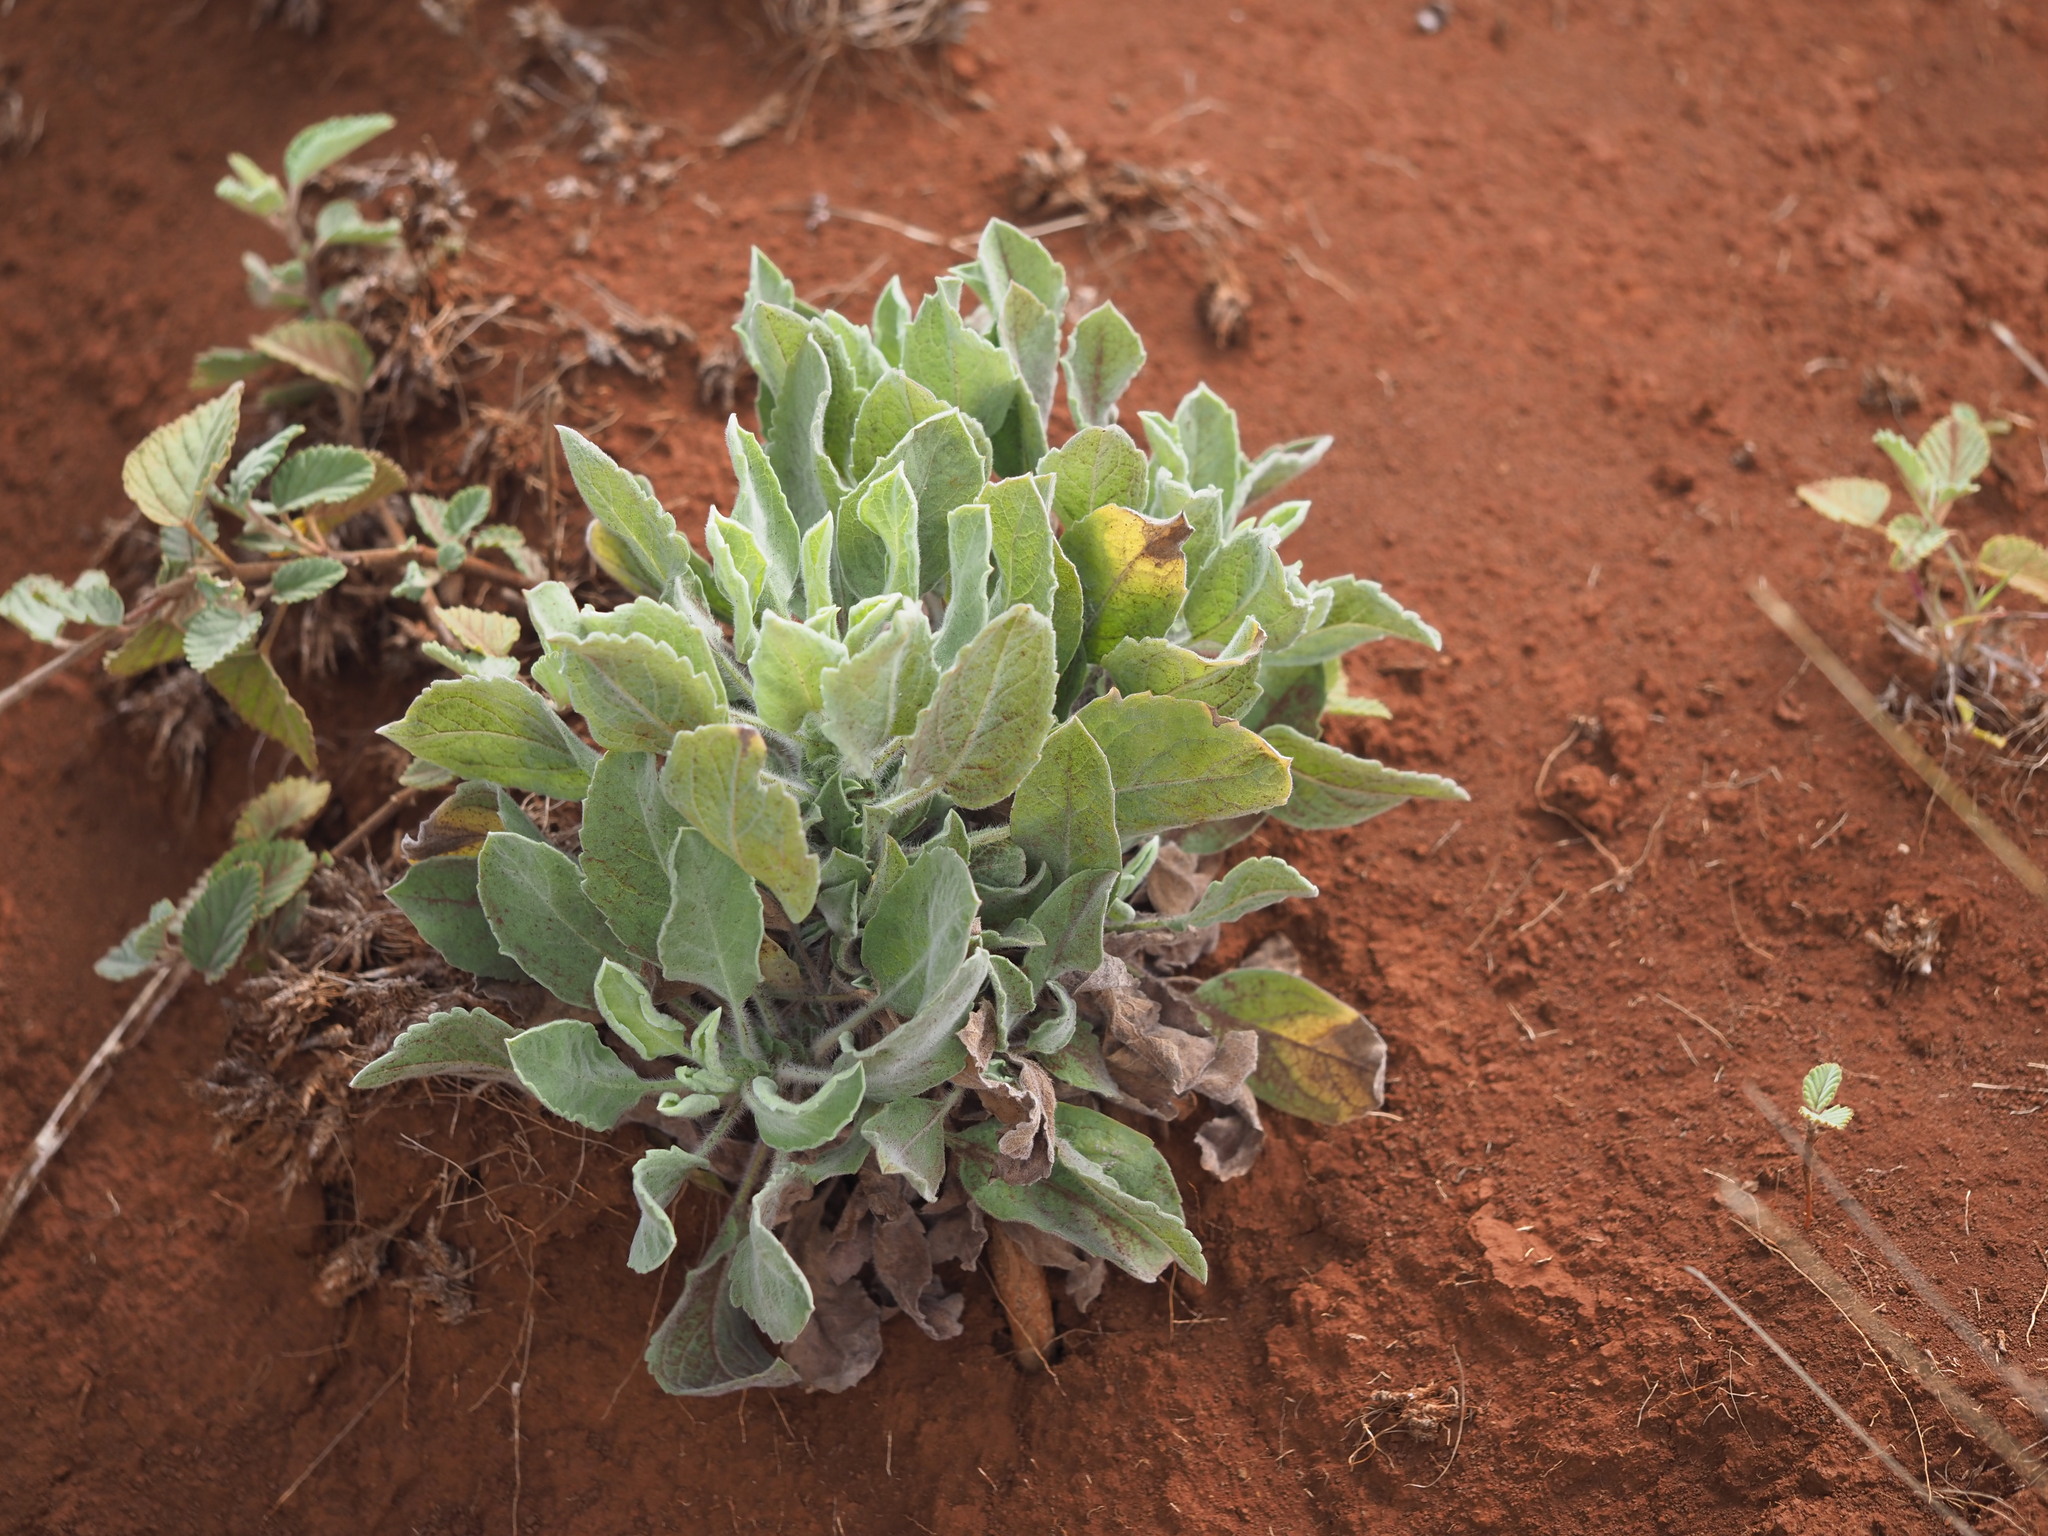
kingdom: Plantae
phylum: Tracheophyta
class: Magnoliopsida
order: Asterales
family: Asteraceae
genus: Heterotheca
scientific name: Heterotheca grandiflora
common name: Telegraphweed
